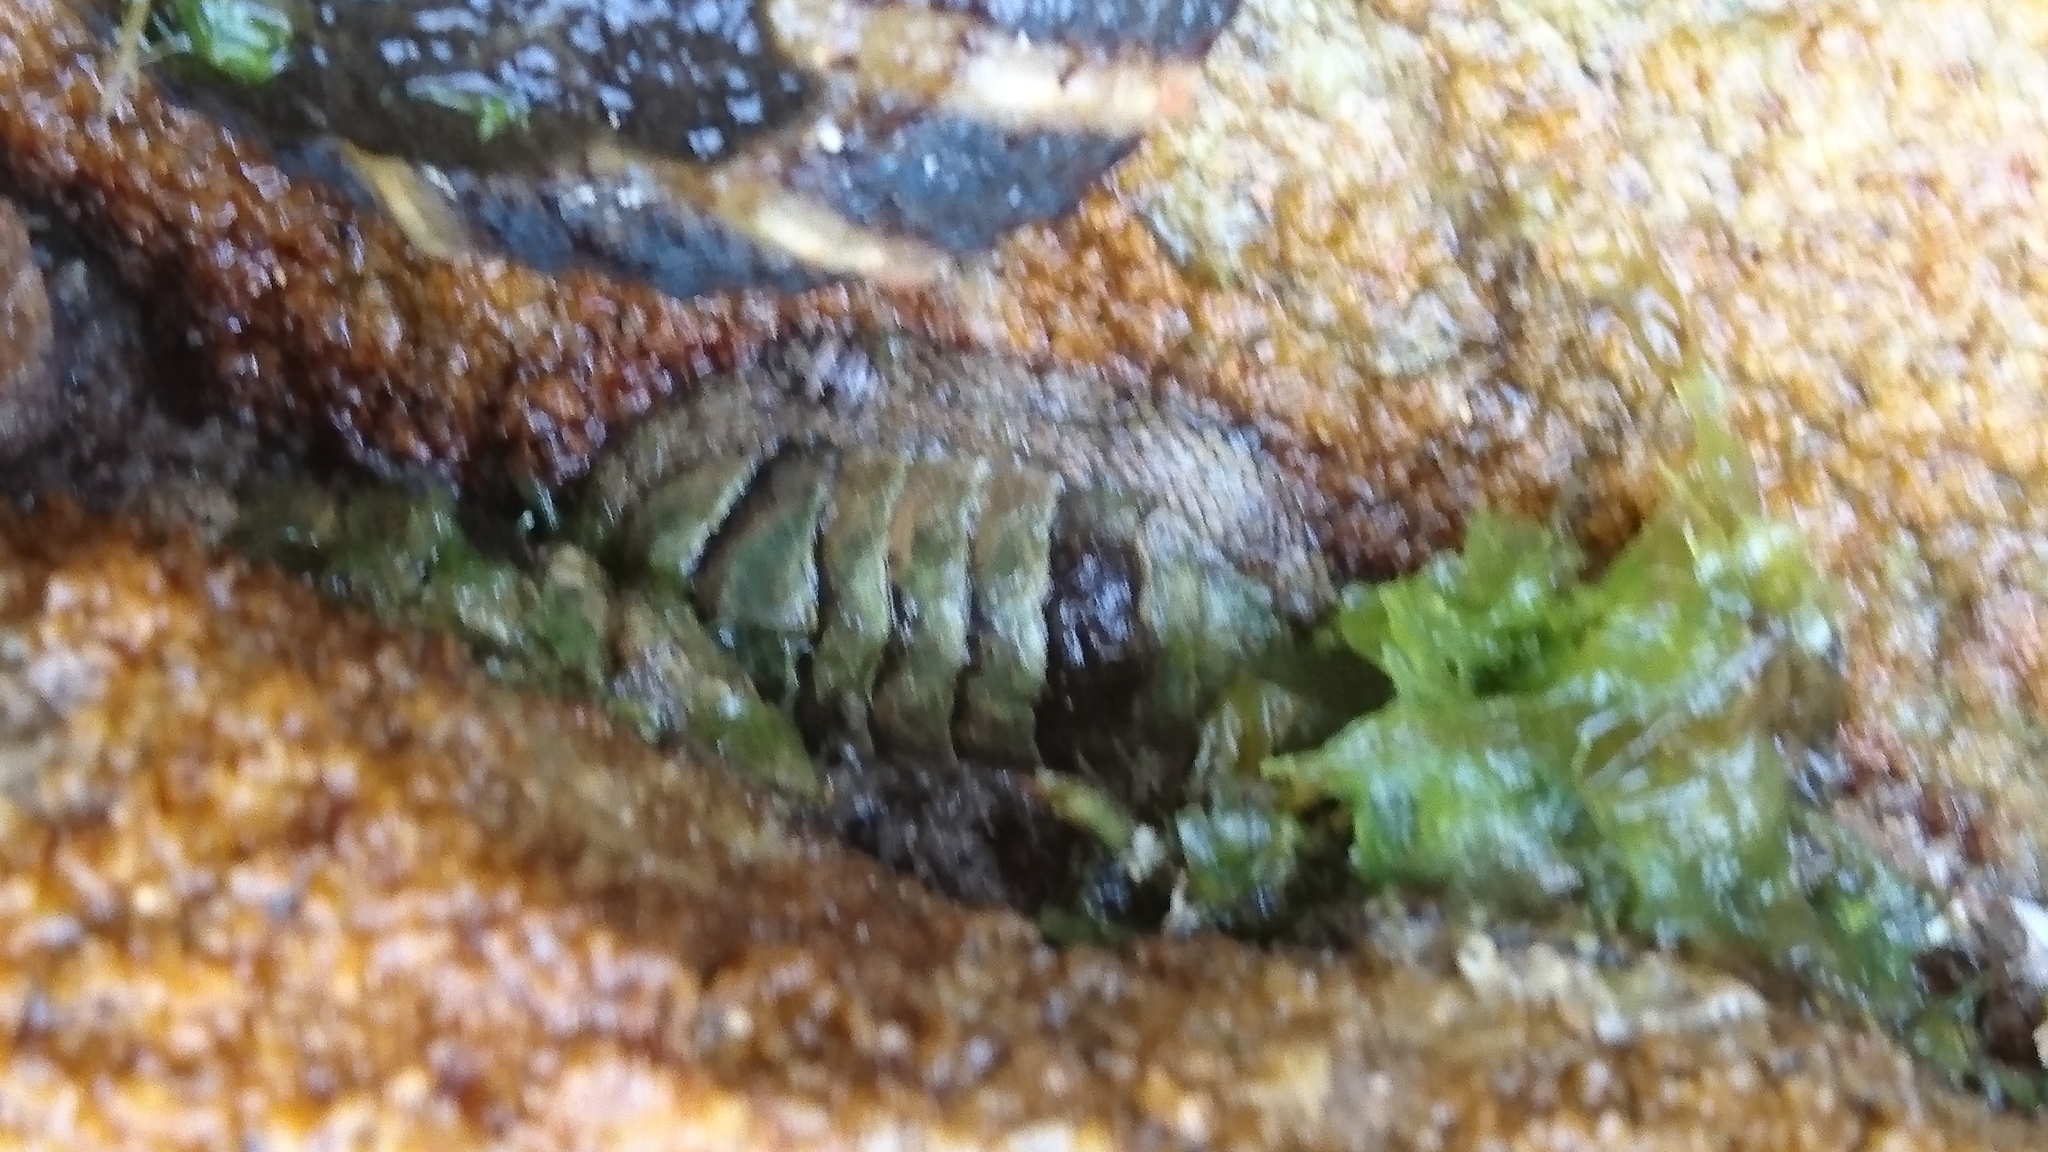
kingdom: Animalia
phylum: Mollusca
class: Polyplacophora
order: Chitonida
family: Chitonidae
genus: Sypharochiton
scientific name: Sypharochiton pelliserpentis
